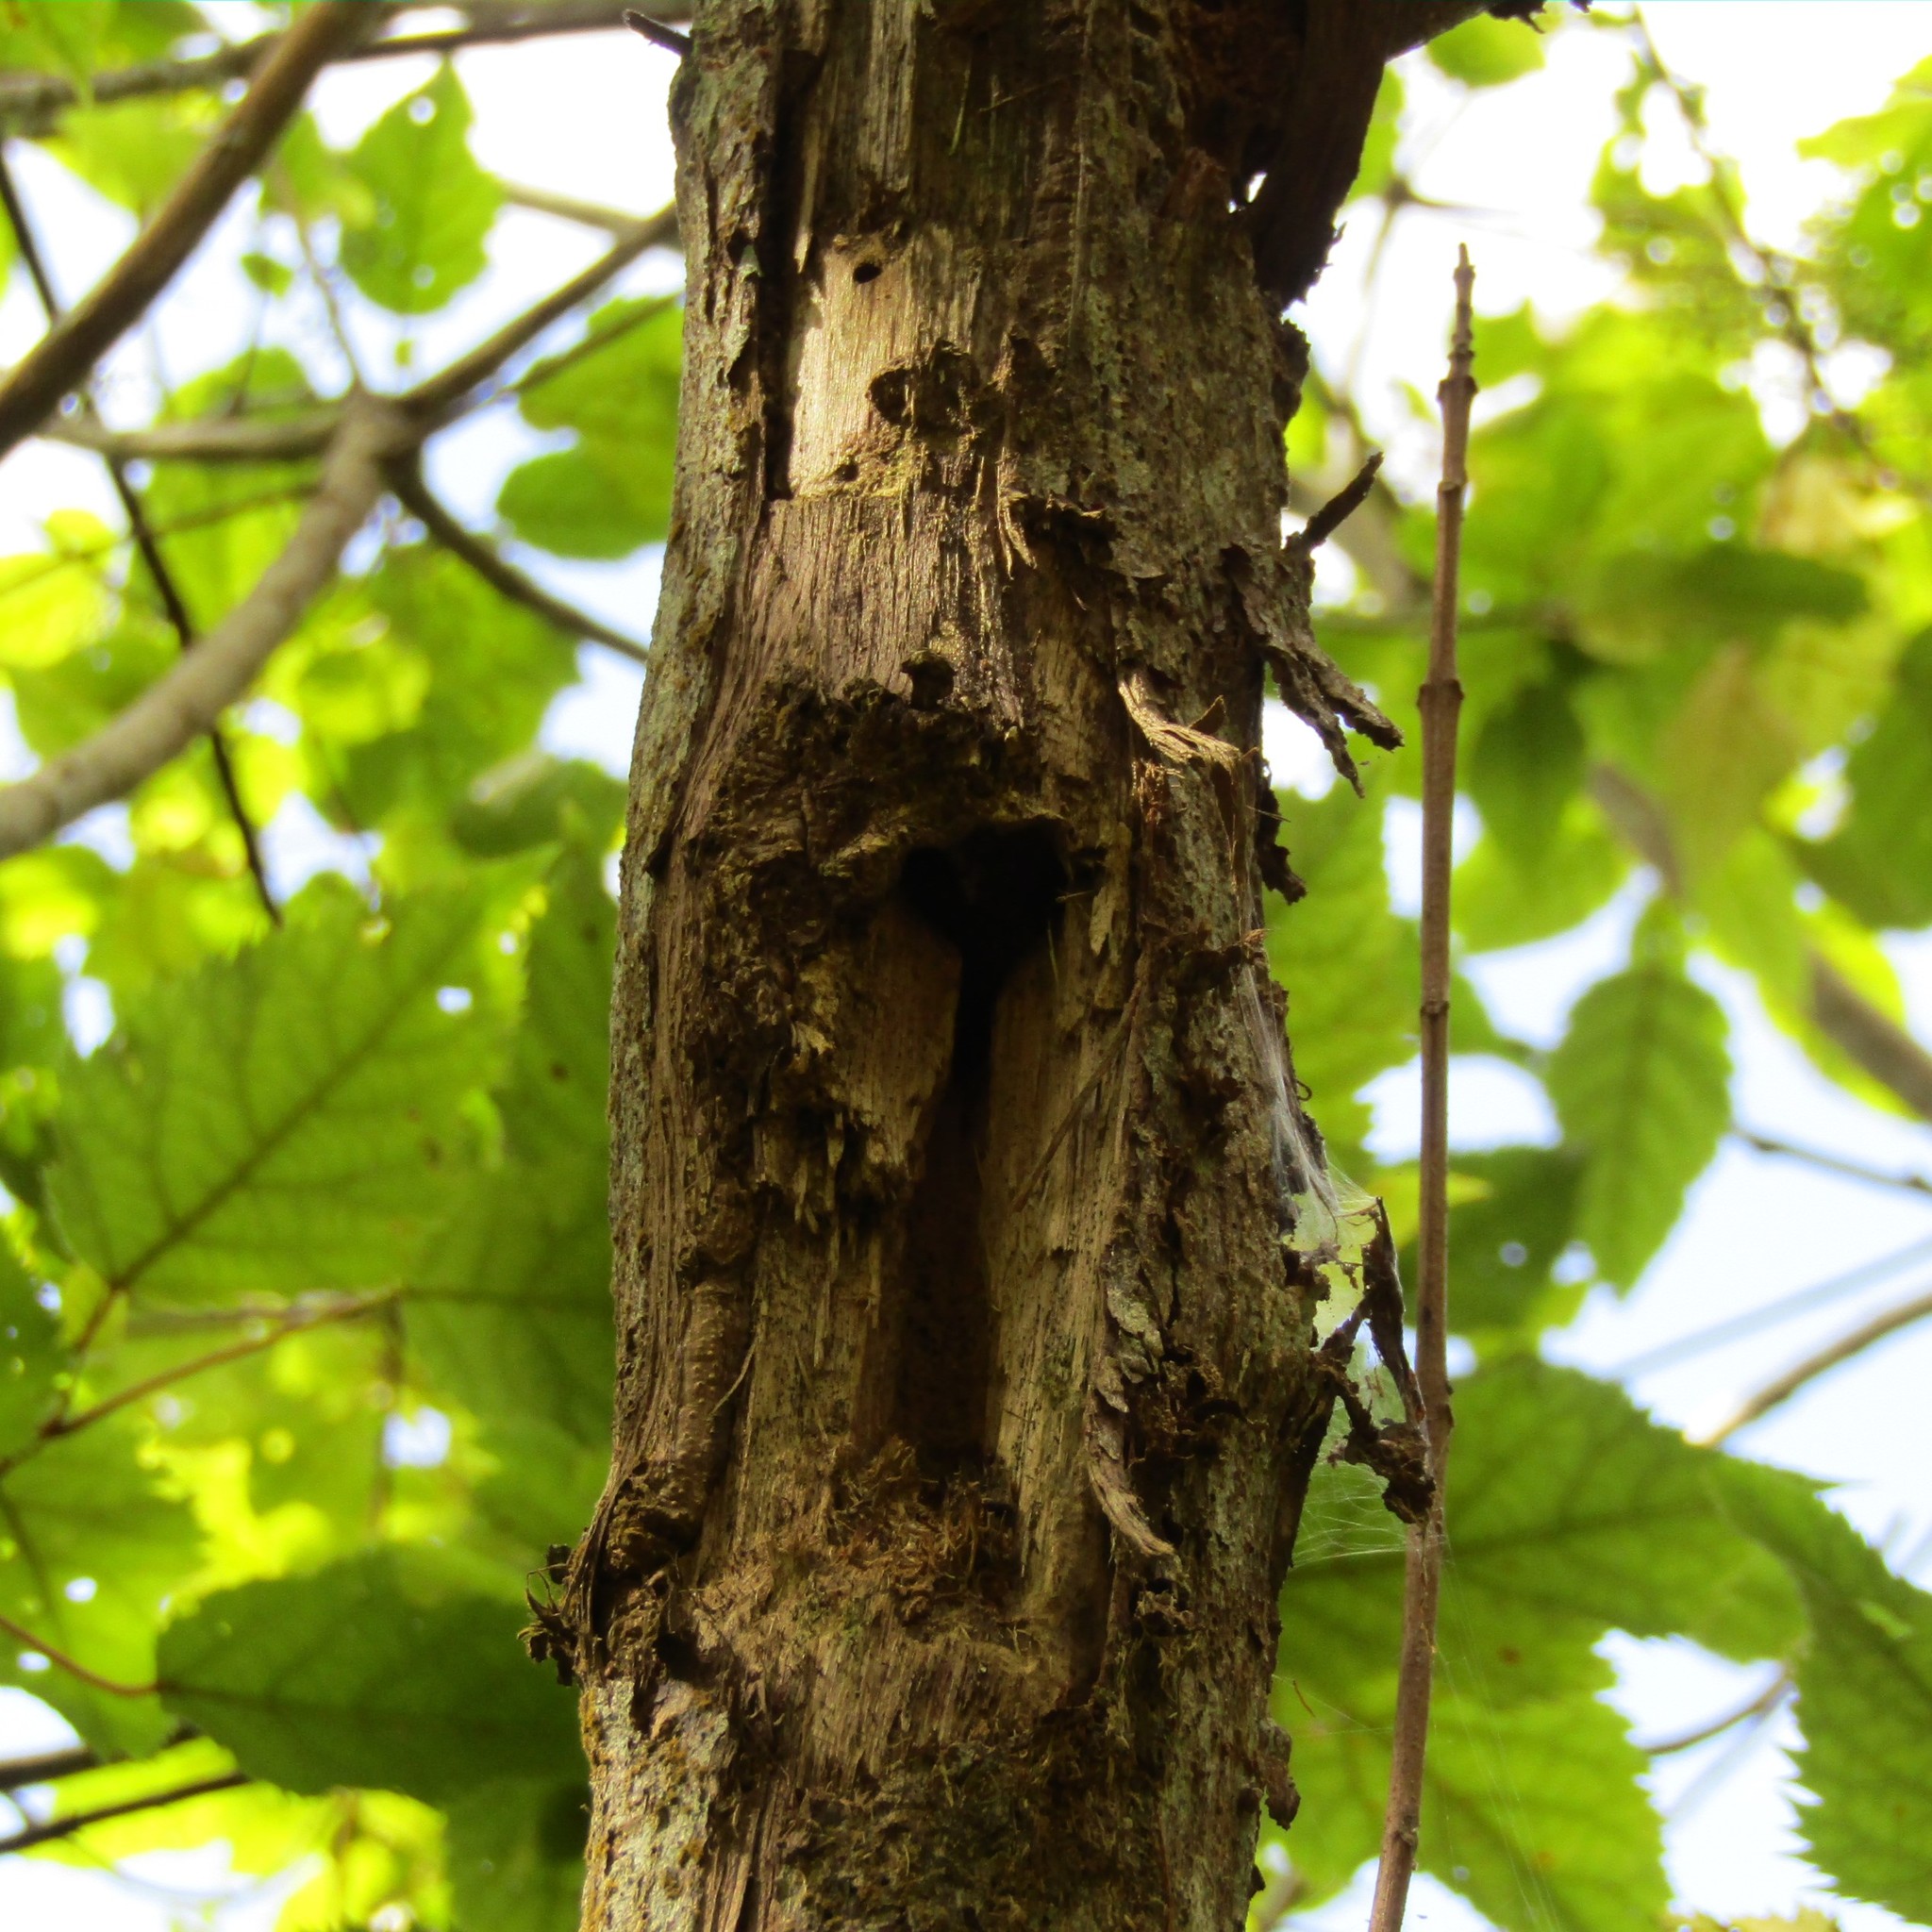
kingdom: Animalia
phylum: Arthropoda
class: Insecta
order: Lepidoptera
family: Hepialidae
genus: Aenetus
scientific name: Aenetus virescens
